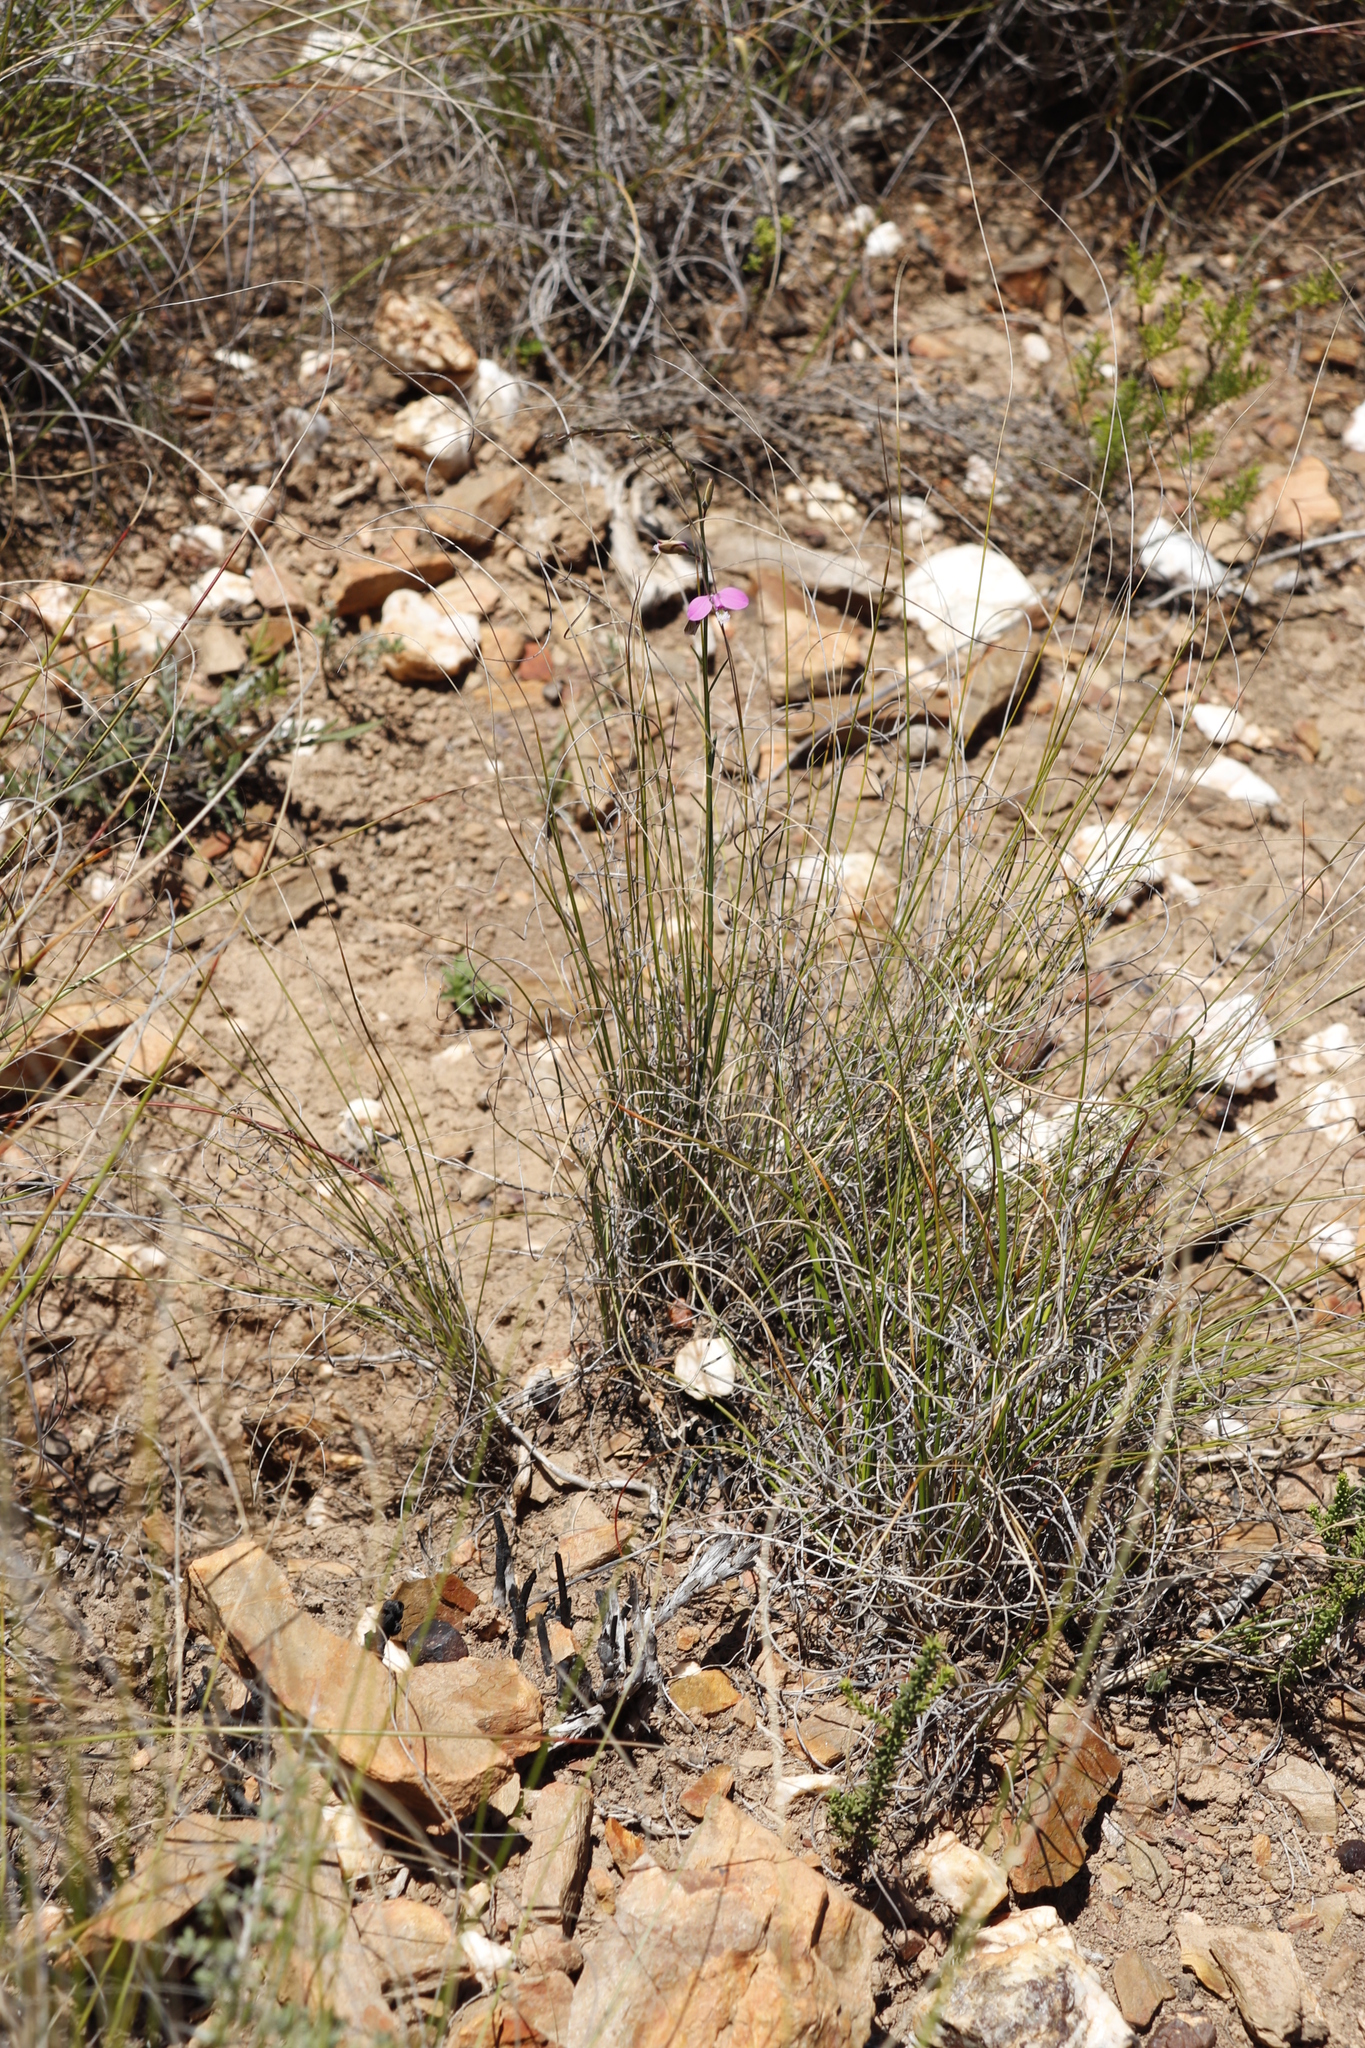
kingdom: Plantae
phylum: Tracheophyta
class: Magnoliopsida
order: Fabales
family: Polygalaceae
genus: Polygala
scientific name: Polygala garcini
